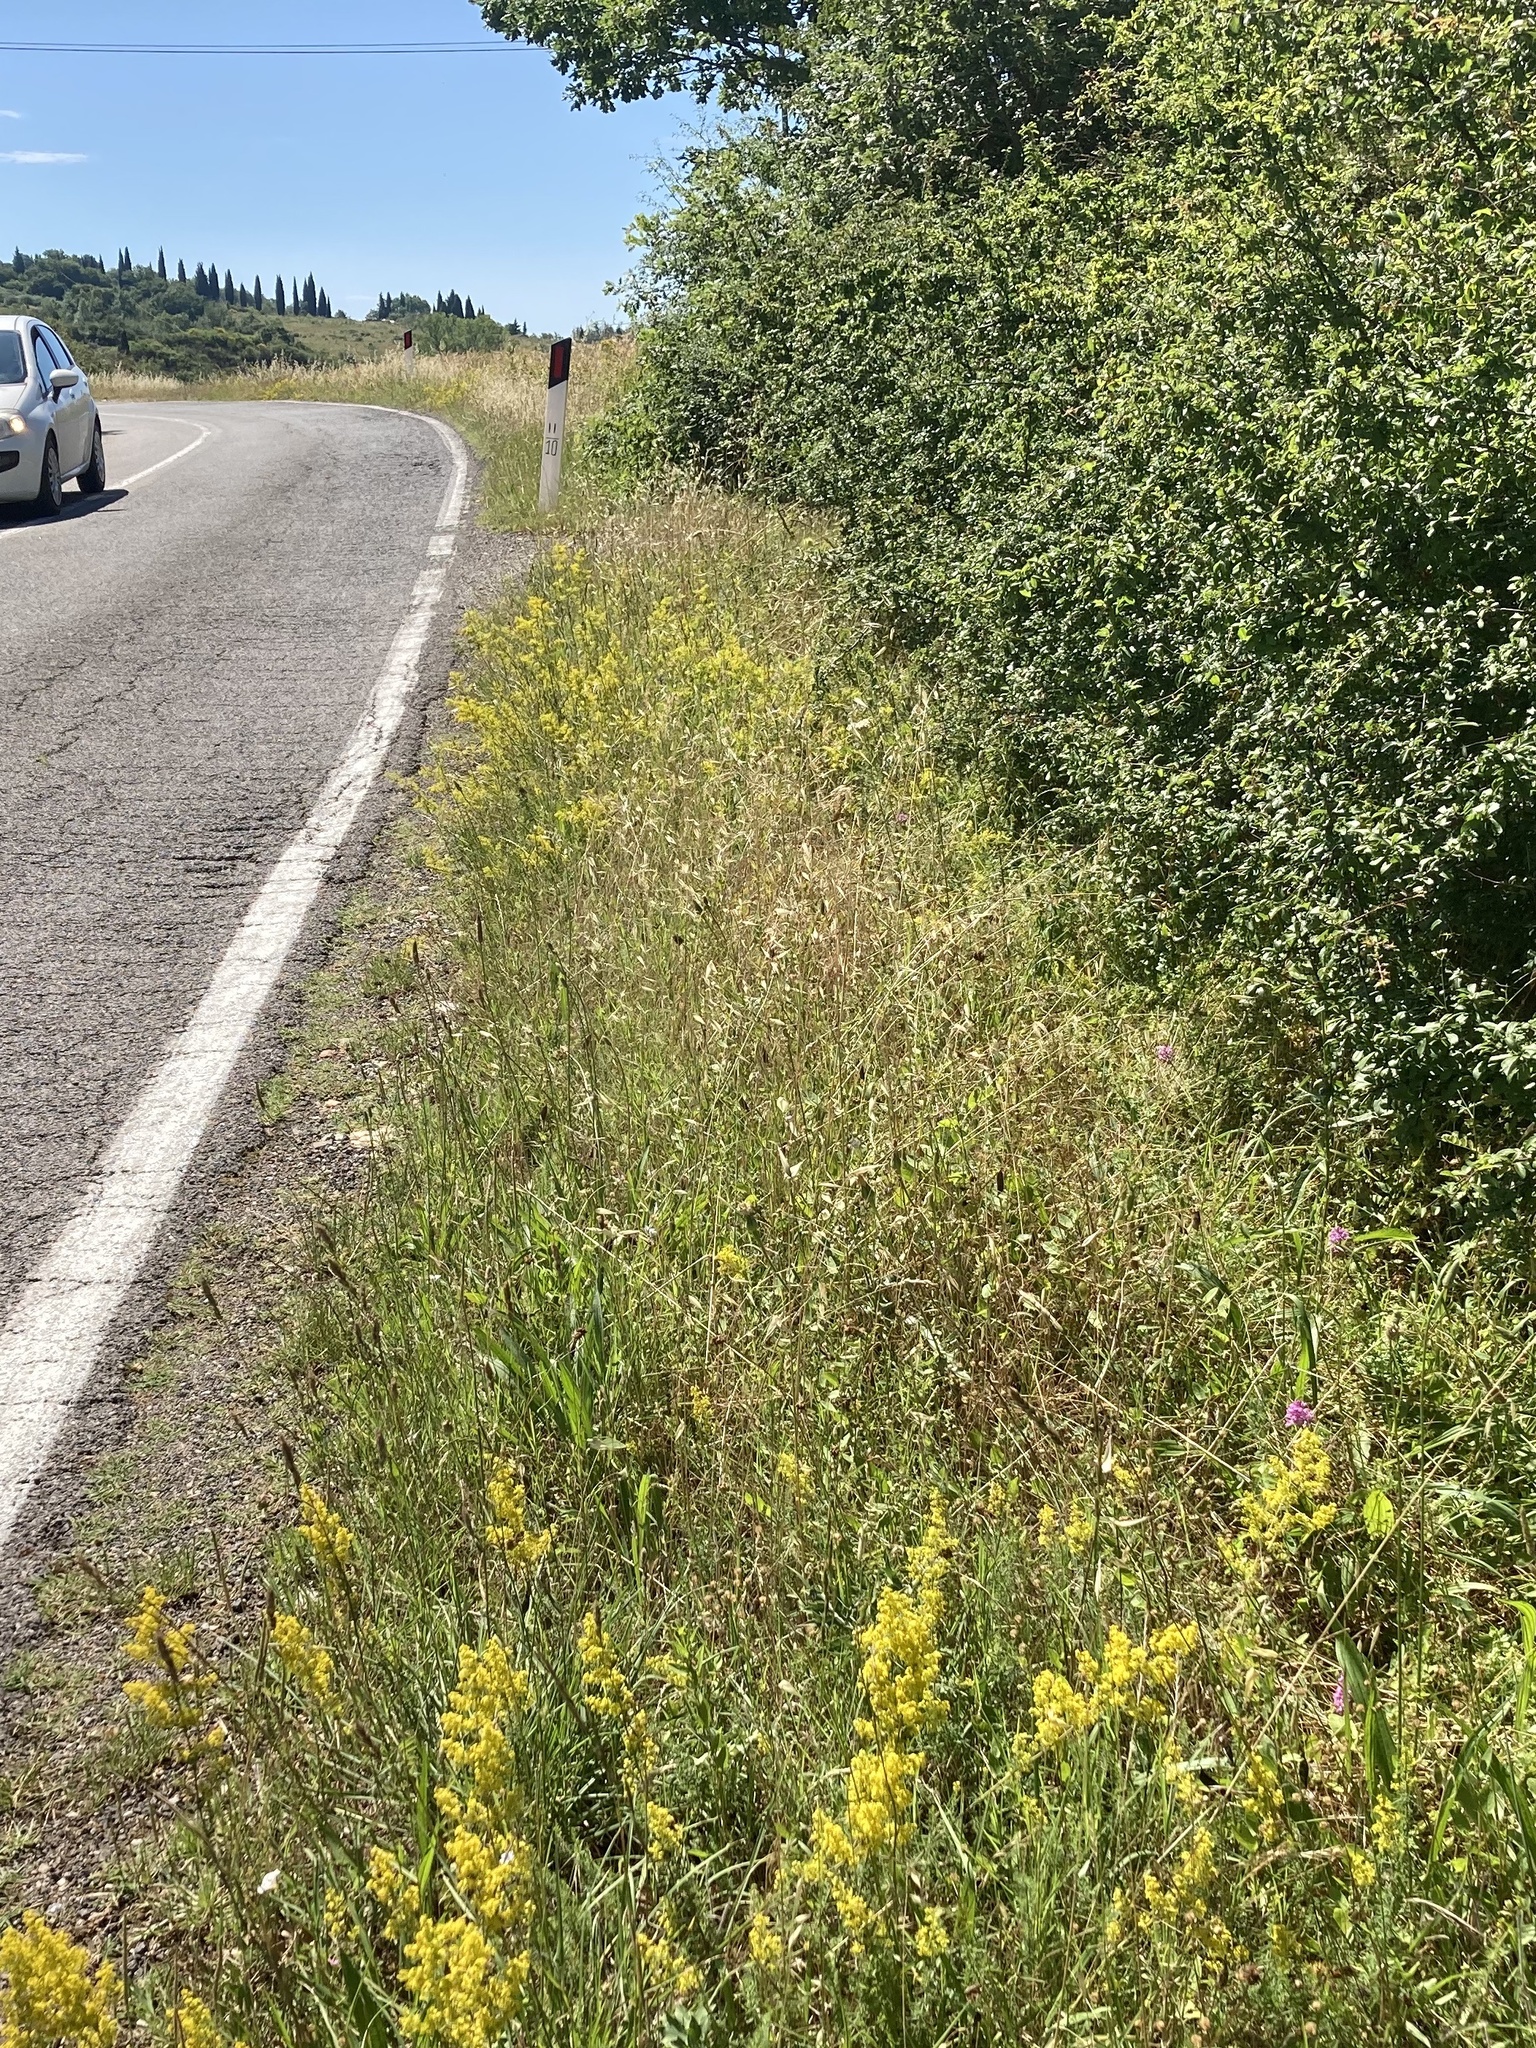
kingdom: Plantae
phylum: Tracheophyta
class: Liliopsida
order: Asparagales
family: Orchidaceae
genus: Anacamptis
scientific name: Anacamptis pyramidalis
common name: Pyramidal orchid
